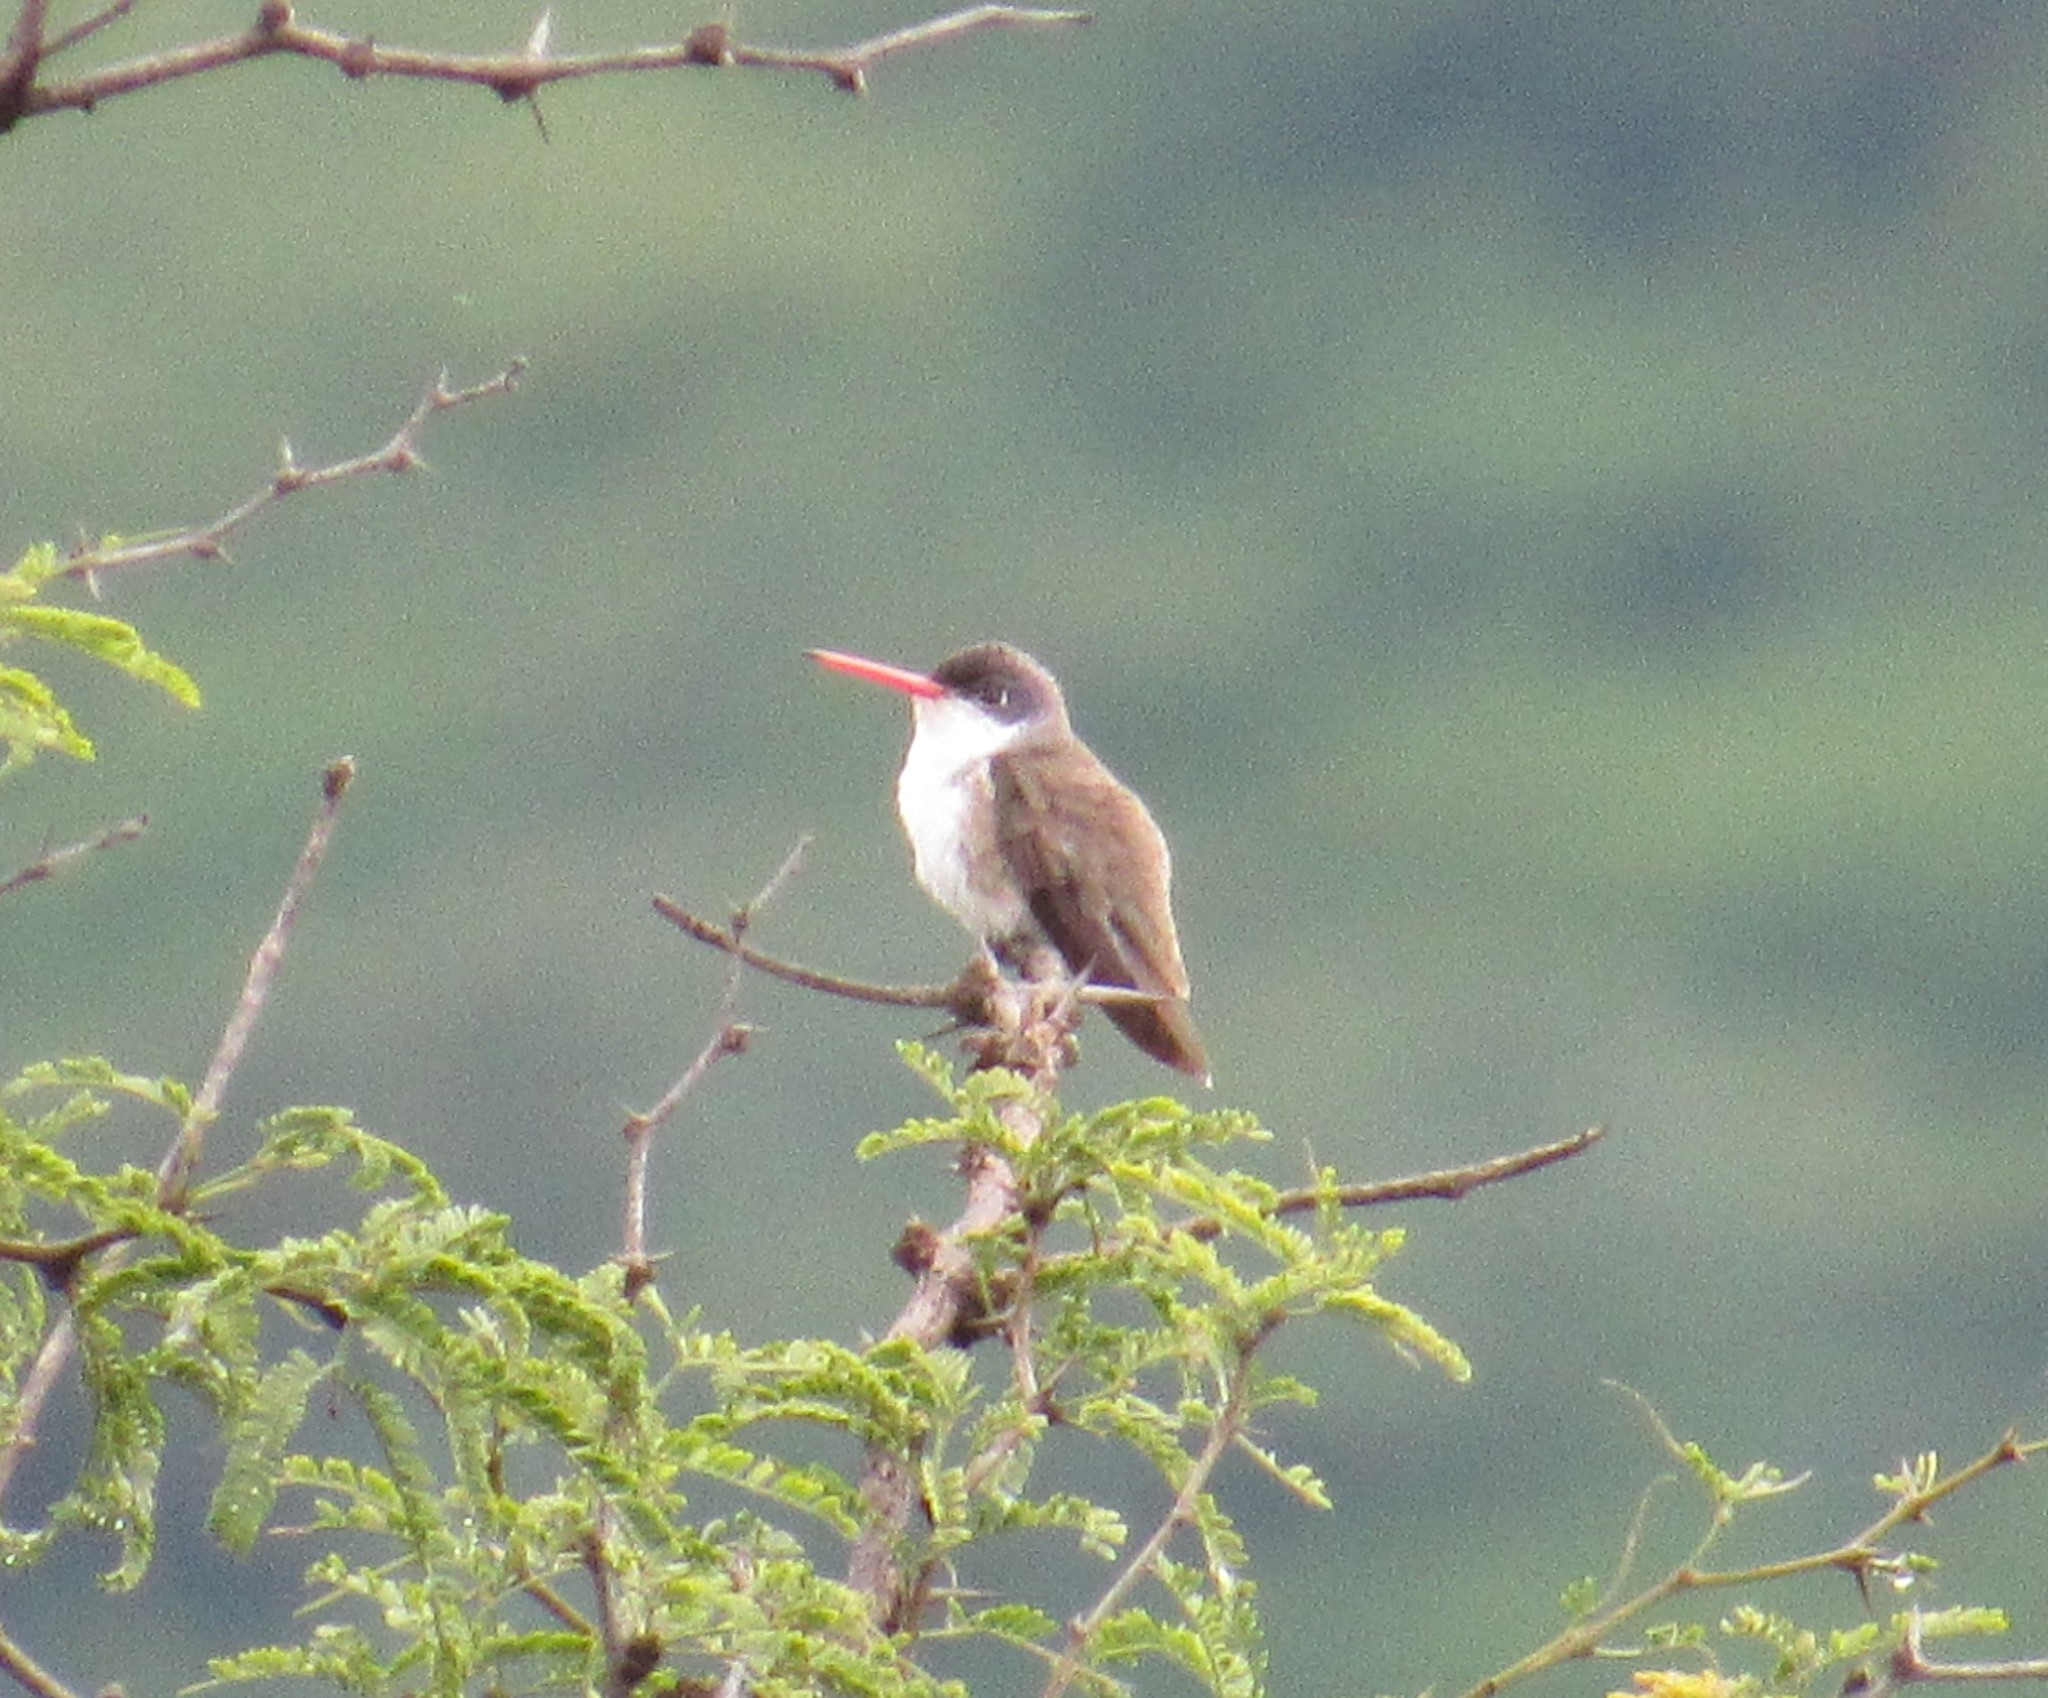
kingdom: Animalia
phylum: Chordata
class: Aves
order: Apodiformes
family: Trochilidae
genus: Leucolia
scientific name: Leucolia violiceps
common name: Violet-crowned hummingbird
